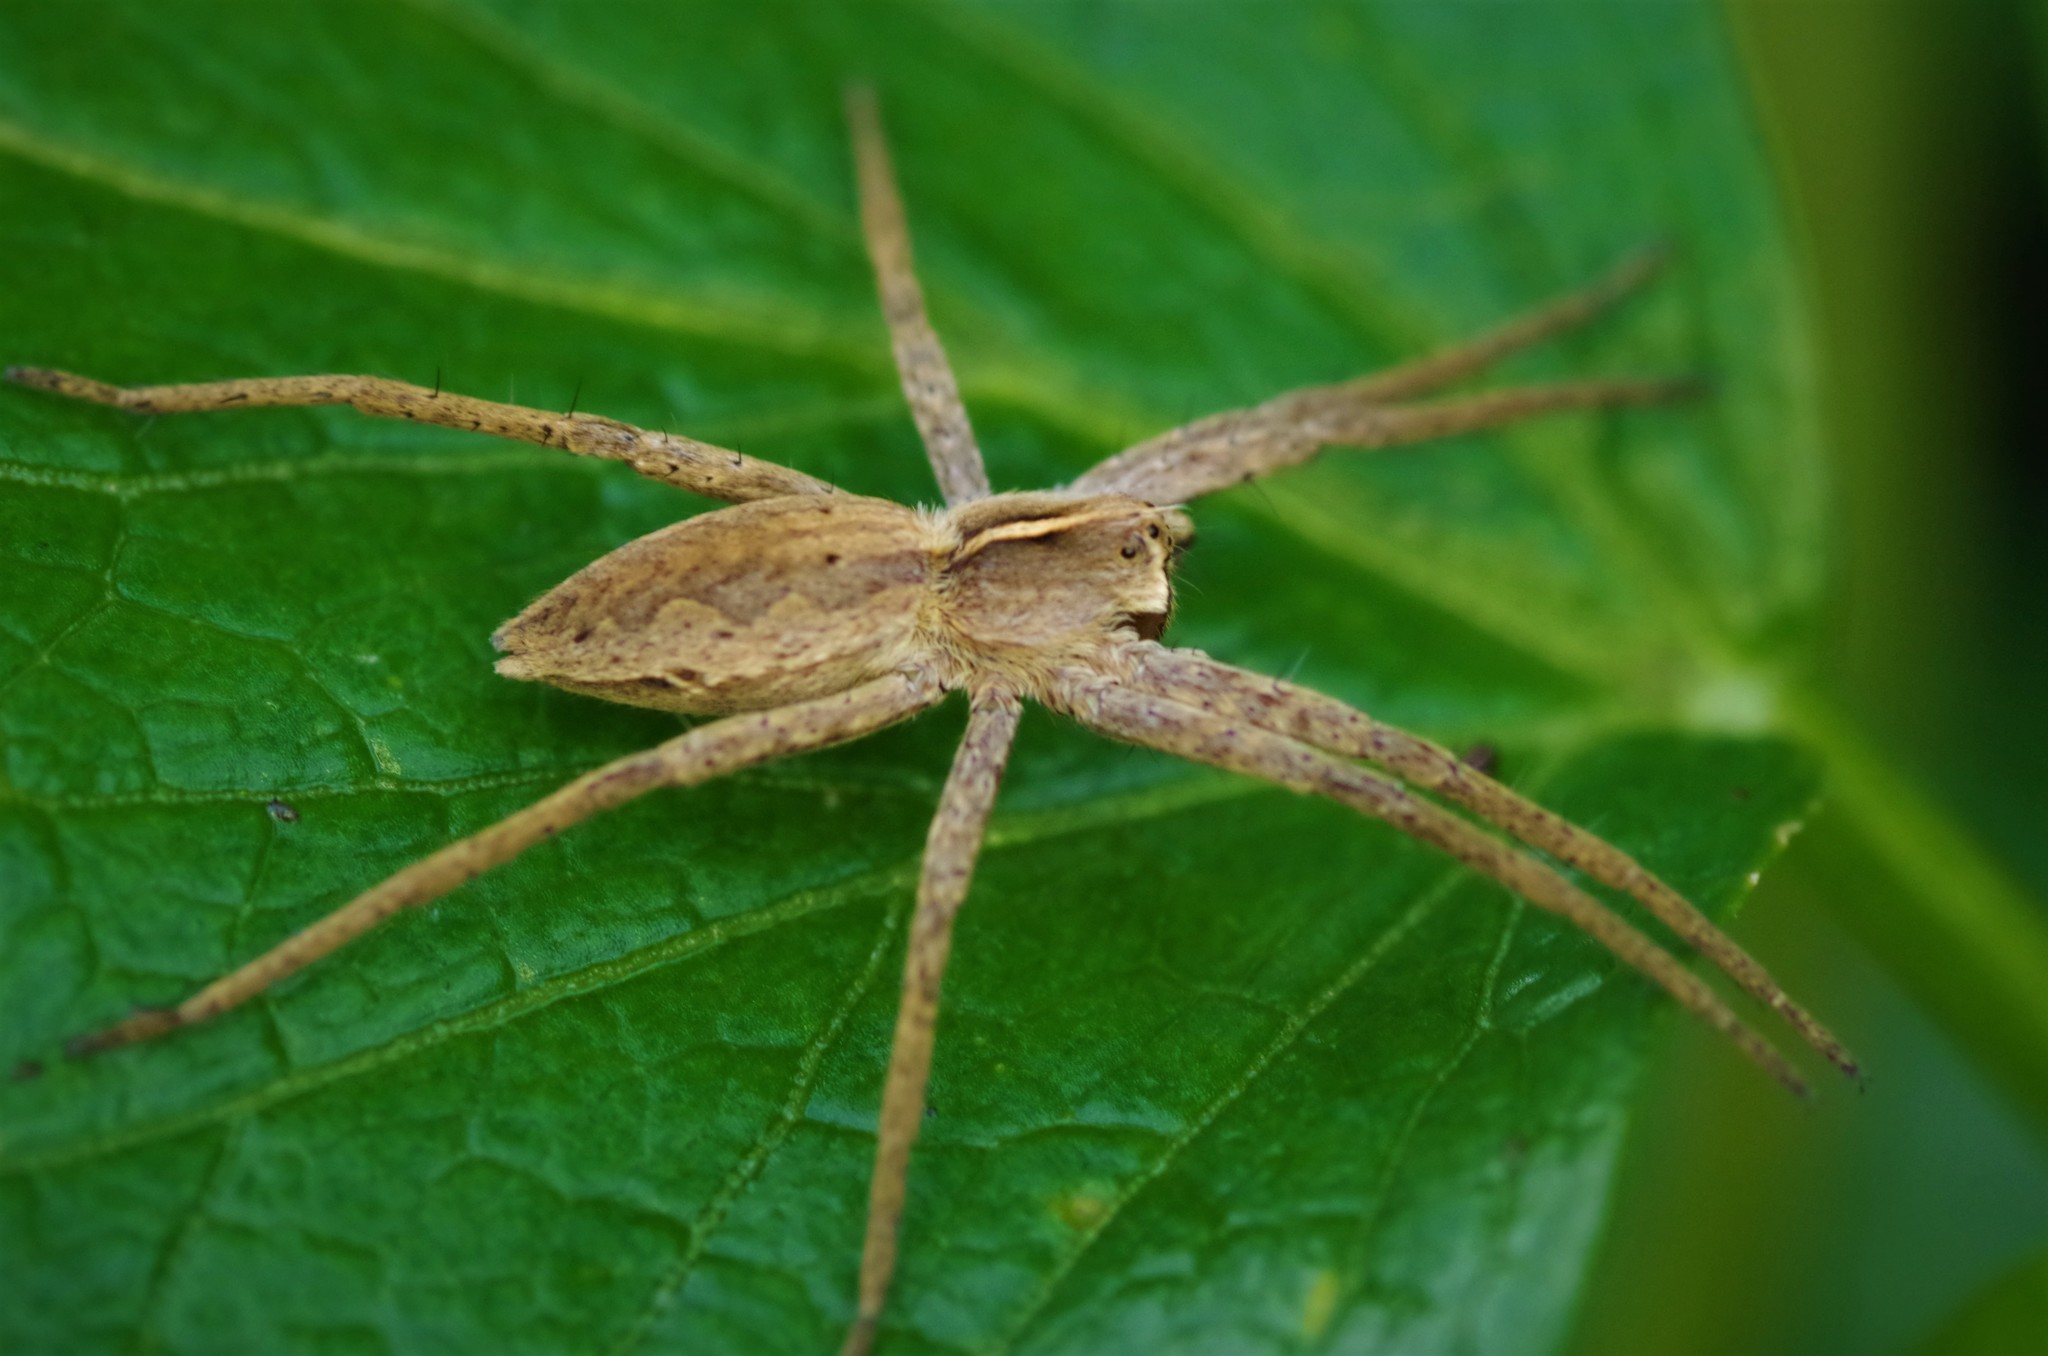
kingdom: Animalia
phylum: Arthropoda
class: Arachnida
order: Araneae
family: Pisauridae
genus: Pisaura
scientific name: Pisaura mirabilis
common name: Tent spider
